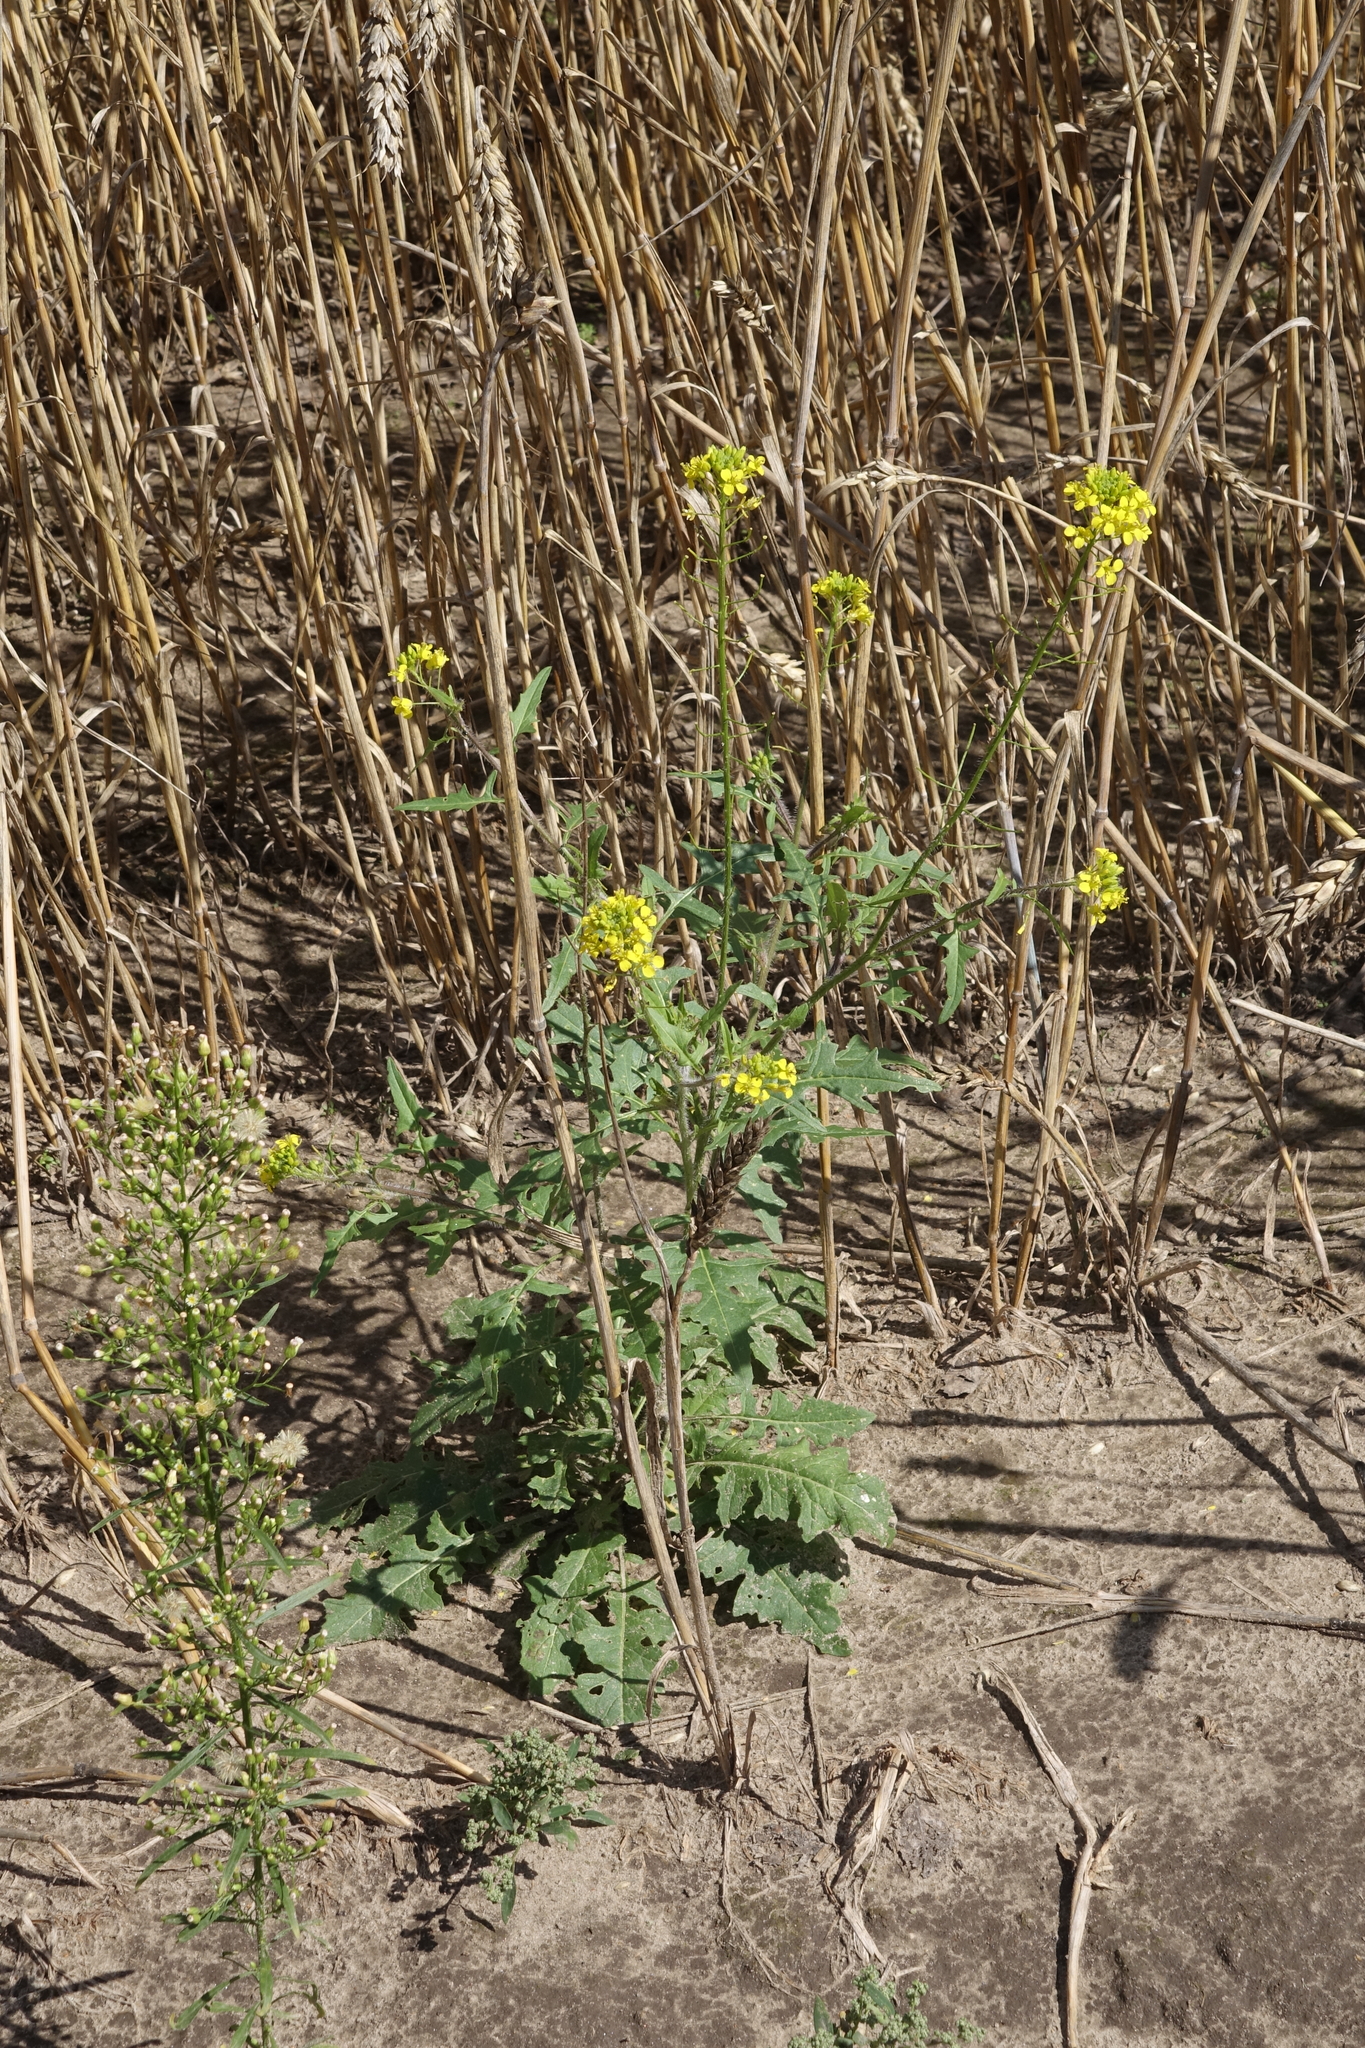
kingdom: Plantae
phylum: Tracheophyta
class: Magnoliopsida
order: Brassicales
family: Brassicaceae
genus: Sisymbrium
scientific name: Sisymbrium loeselii
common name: False london-rocket
